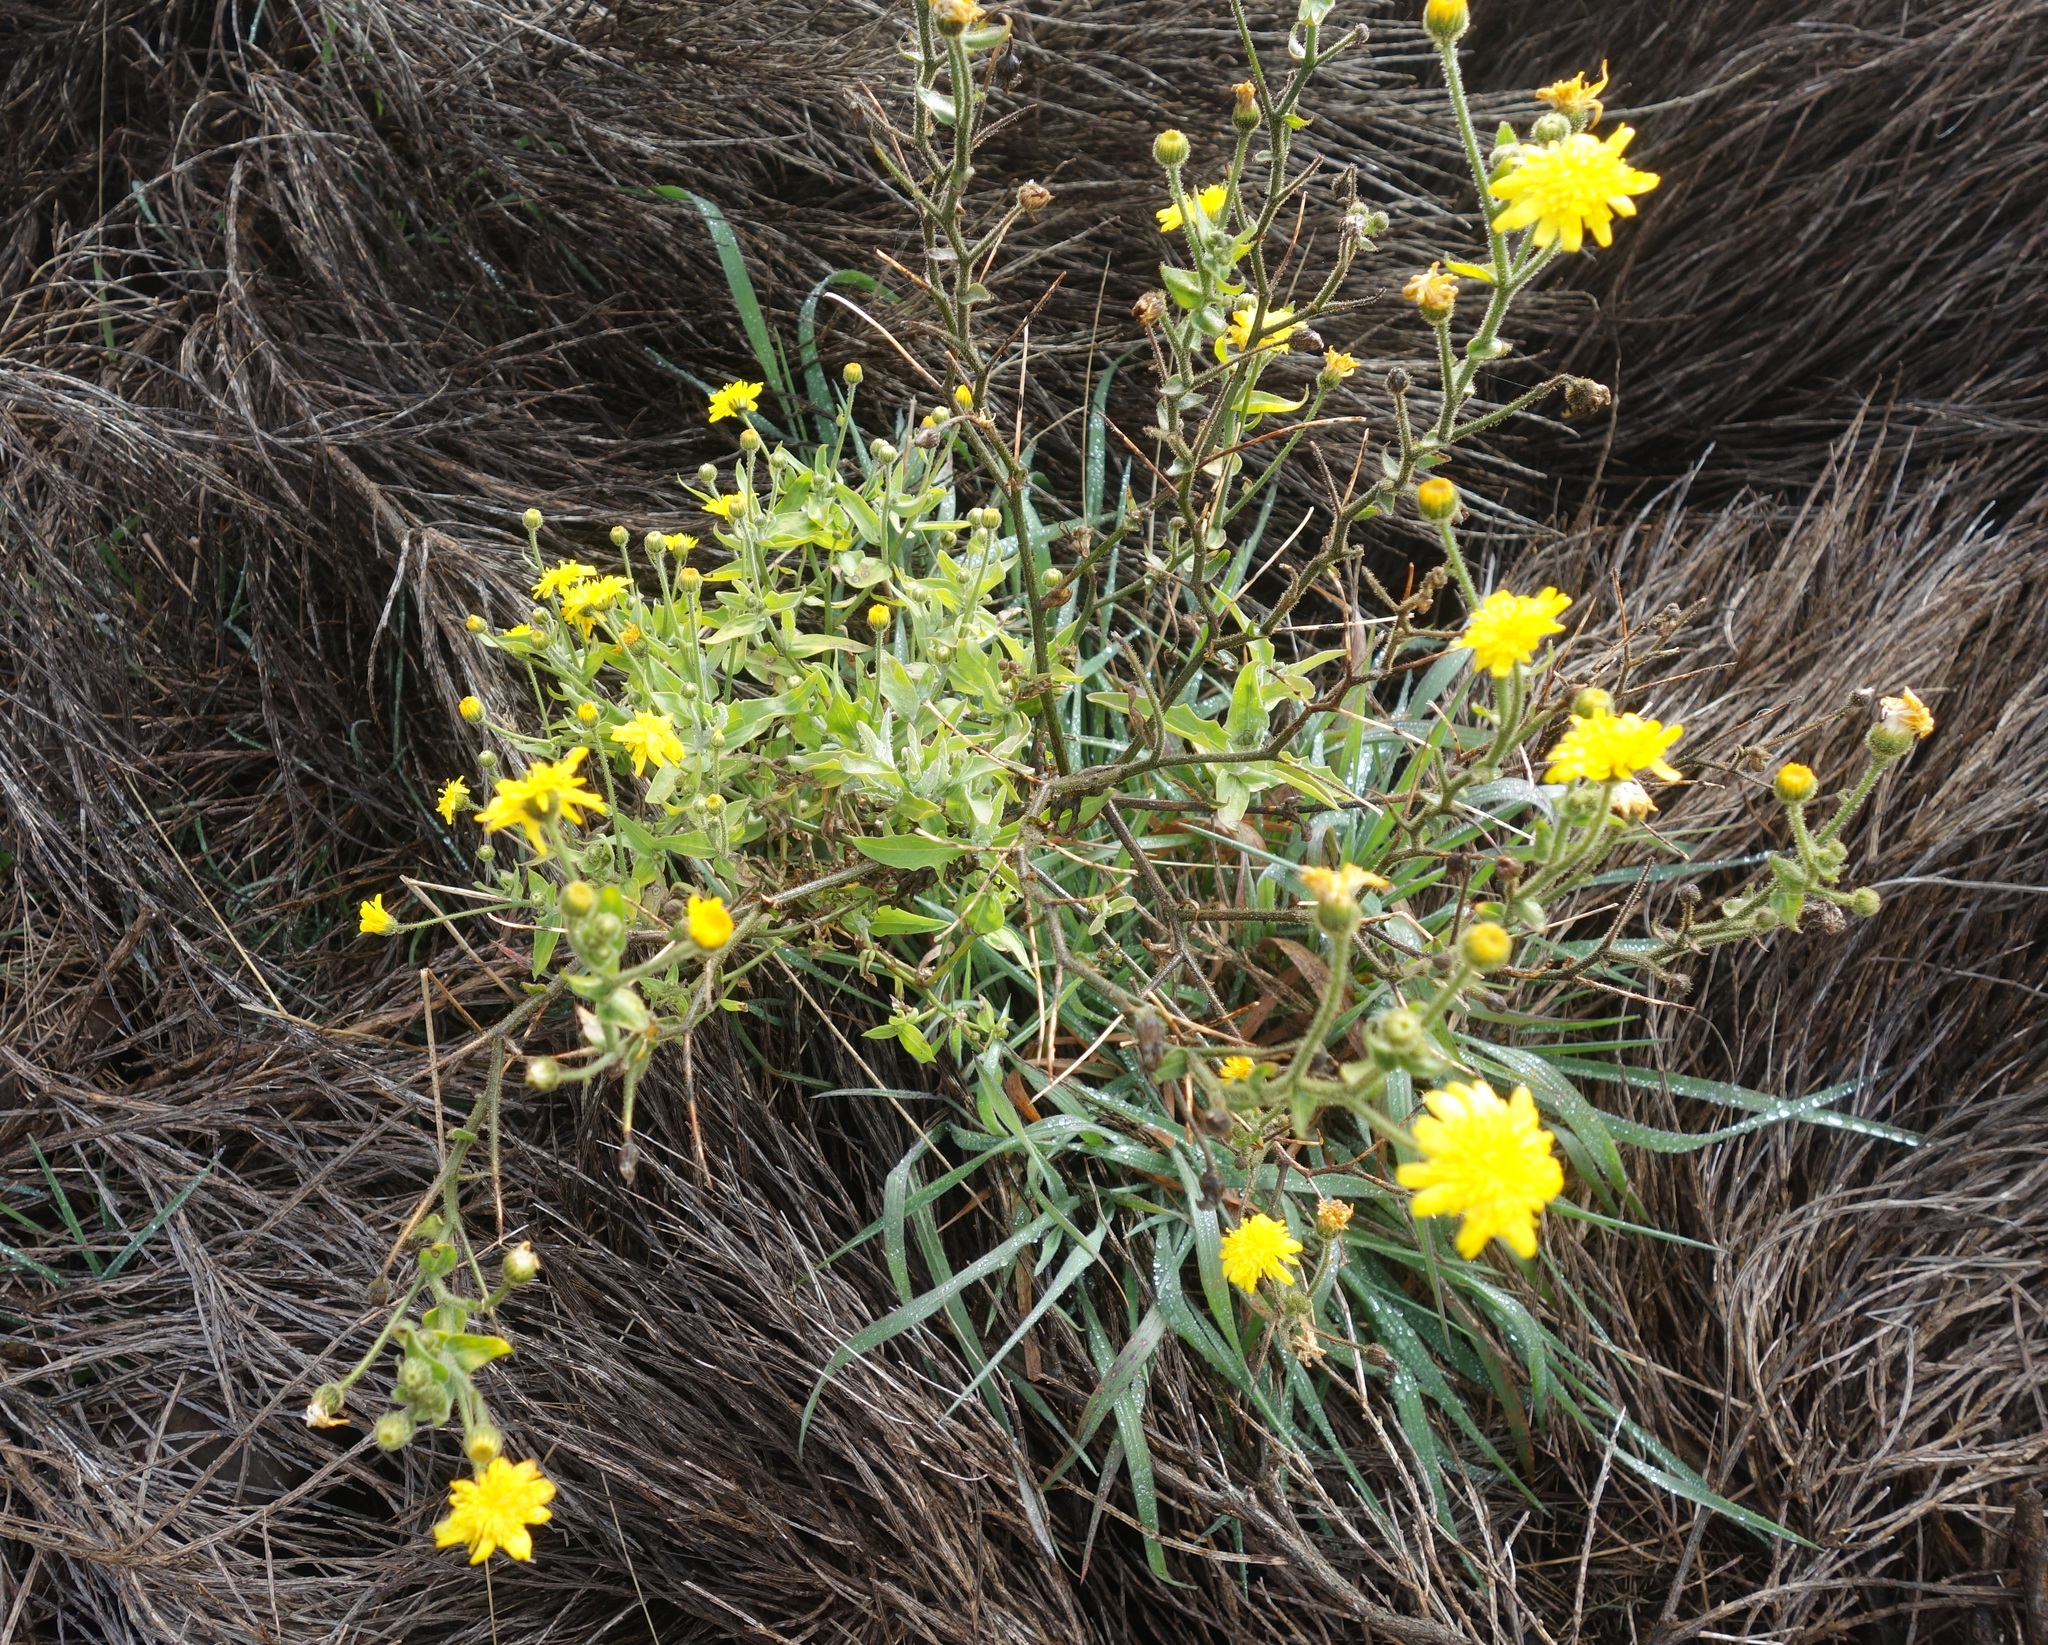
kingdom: Plantae
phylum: Tracheophyta
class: Magnoliopsida
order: Asterales
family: Asteraceae
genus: Andryala
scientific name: Andryala glandulosa
